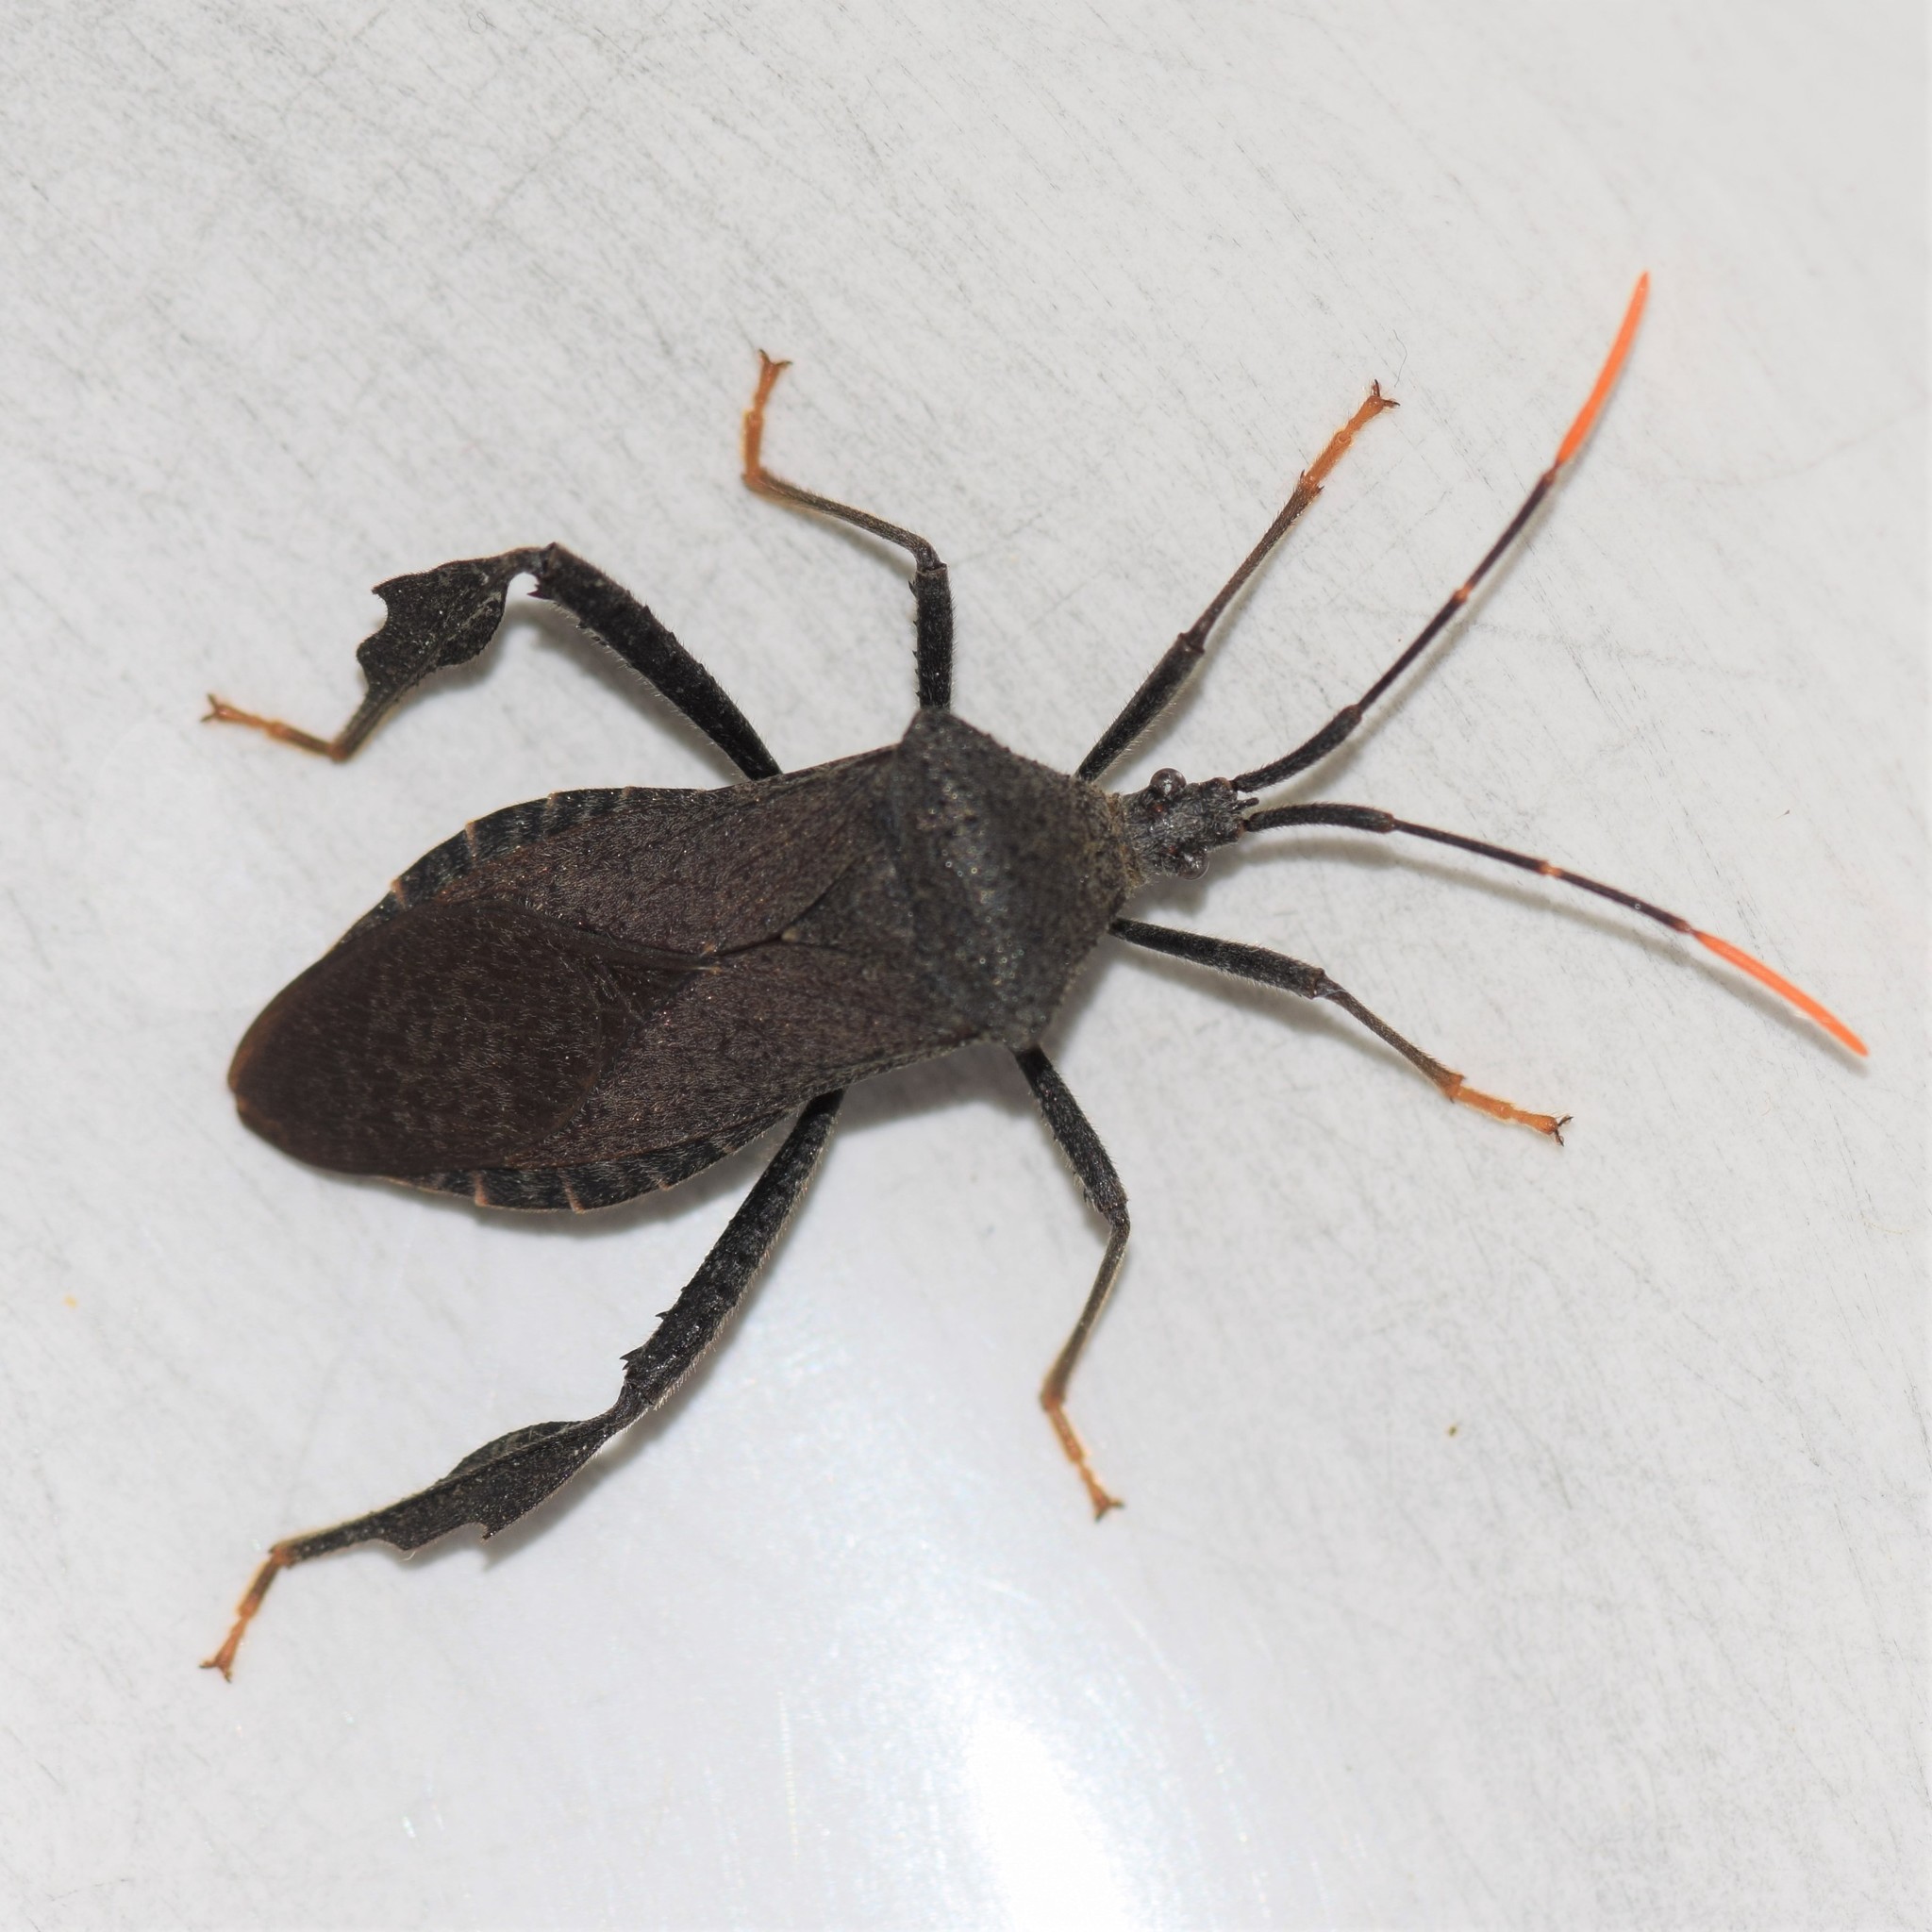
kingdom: Animalia
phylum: Arthropoda
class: Insecta
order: Hemiptera
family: Coreidae
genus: Acanthocephala
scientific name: Acanthocephala terminalis
